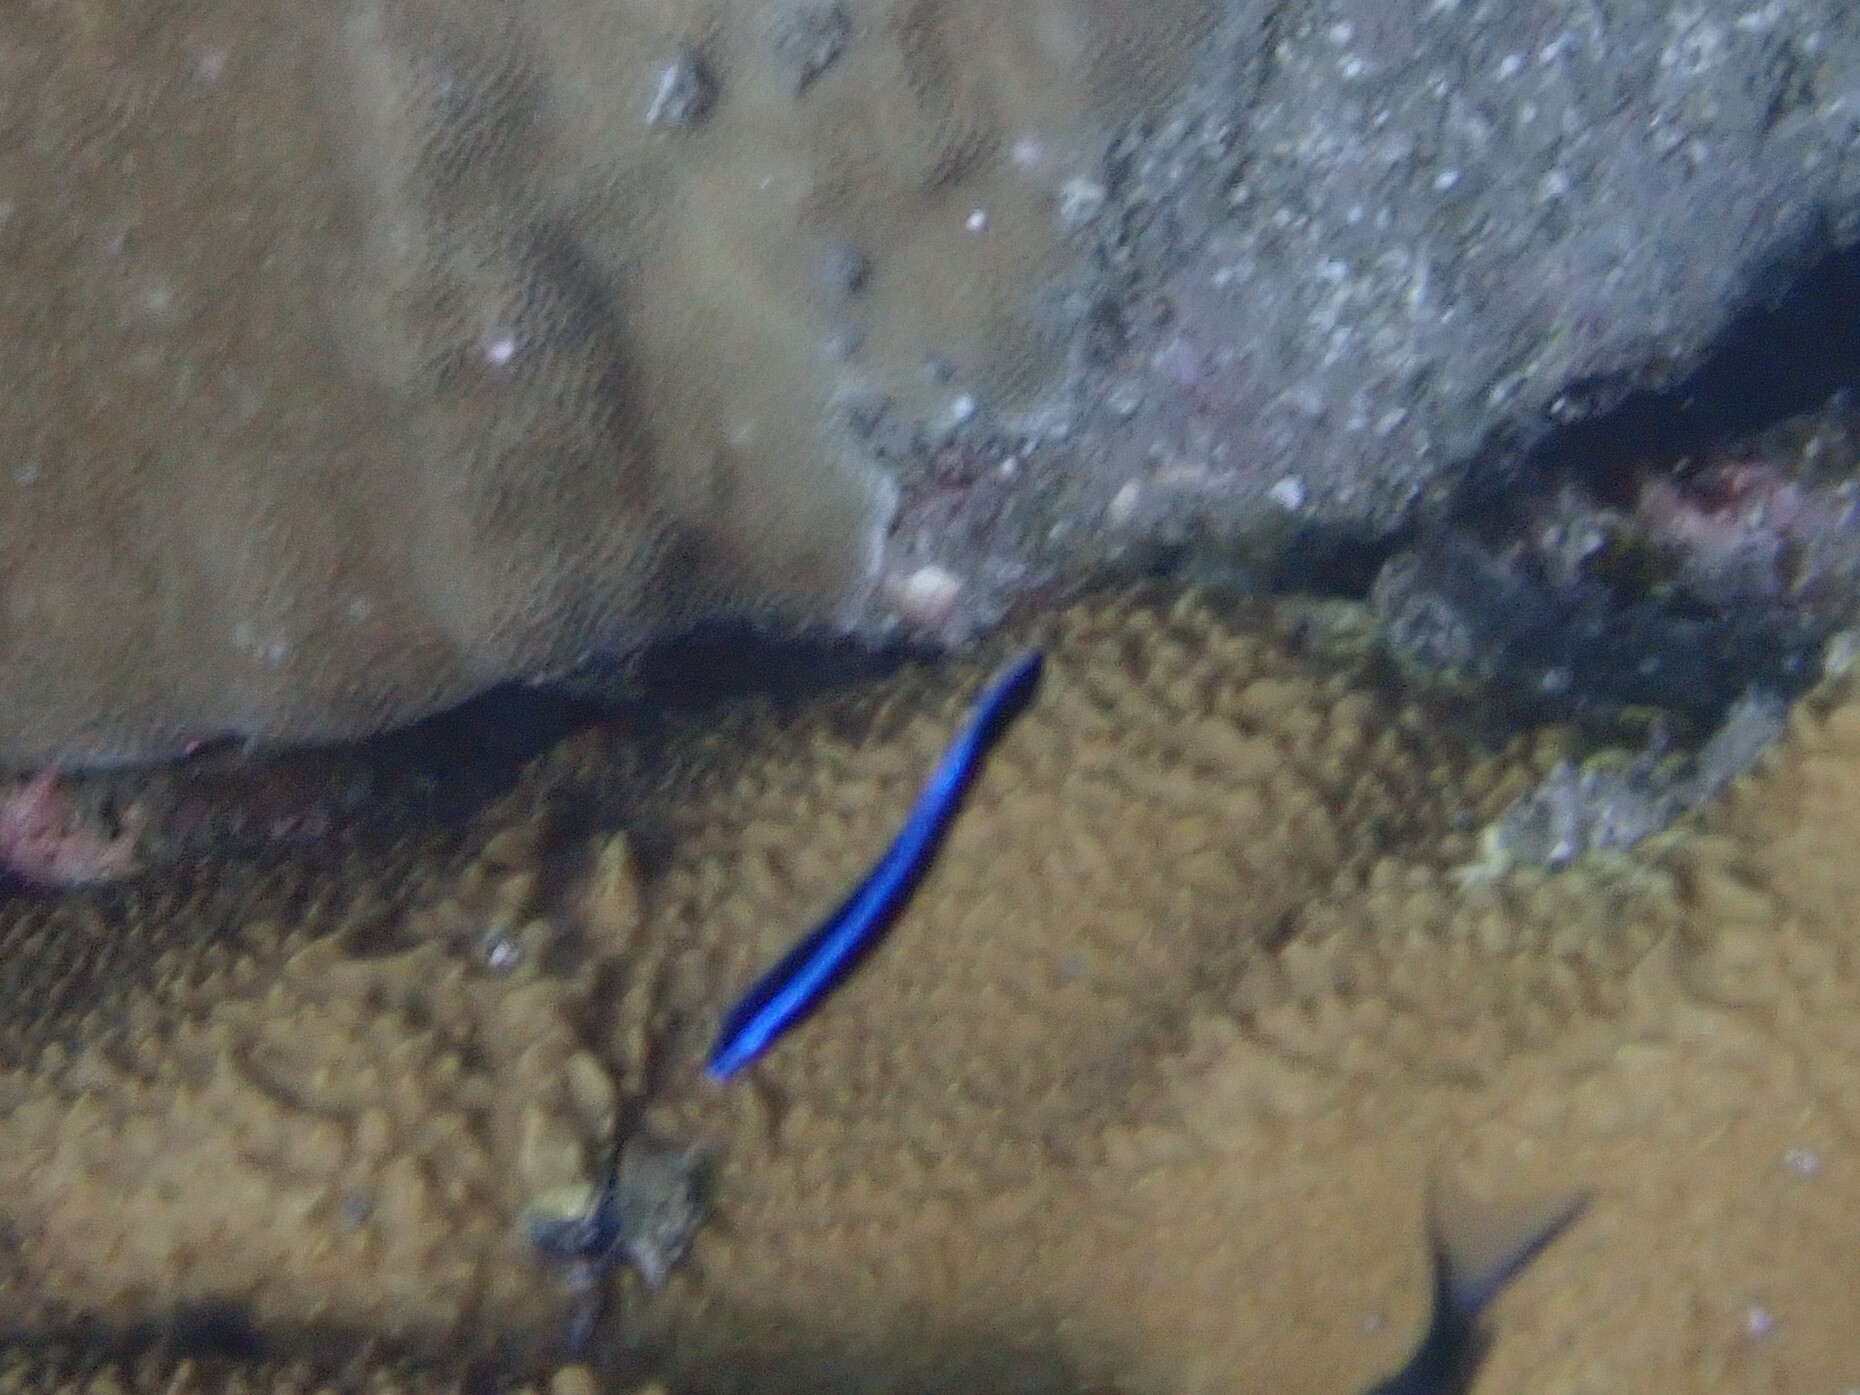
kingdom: Animalia
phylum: Chordata
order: Perciformes
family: Labridae
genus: Labroides
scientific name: Labroides dimidiatus
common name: Blue diesel wrasse
